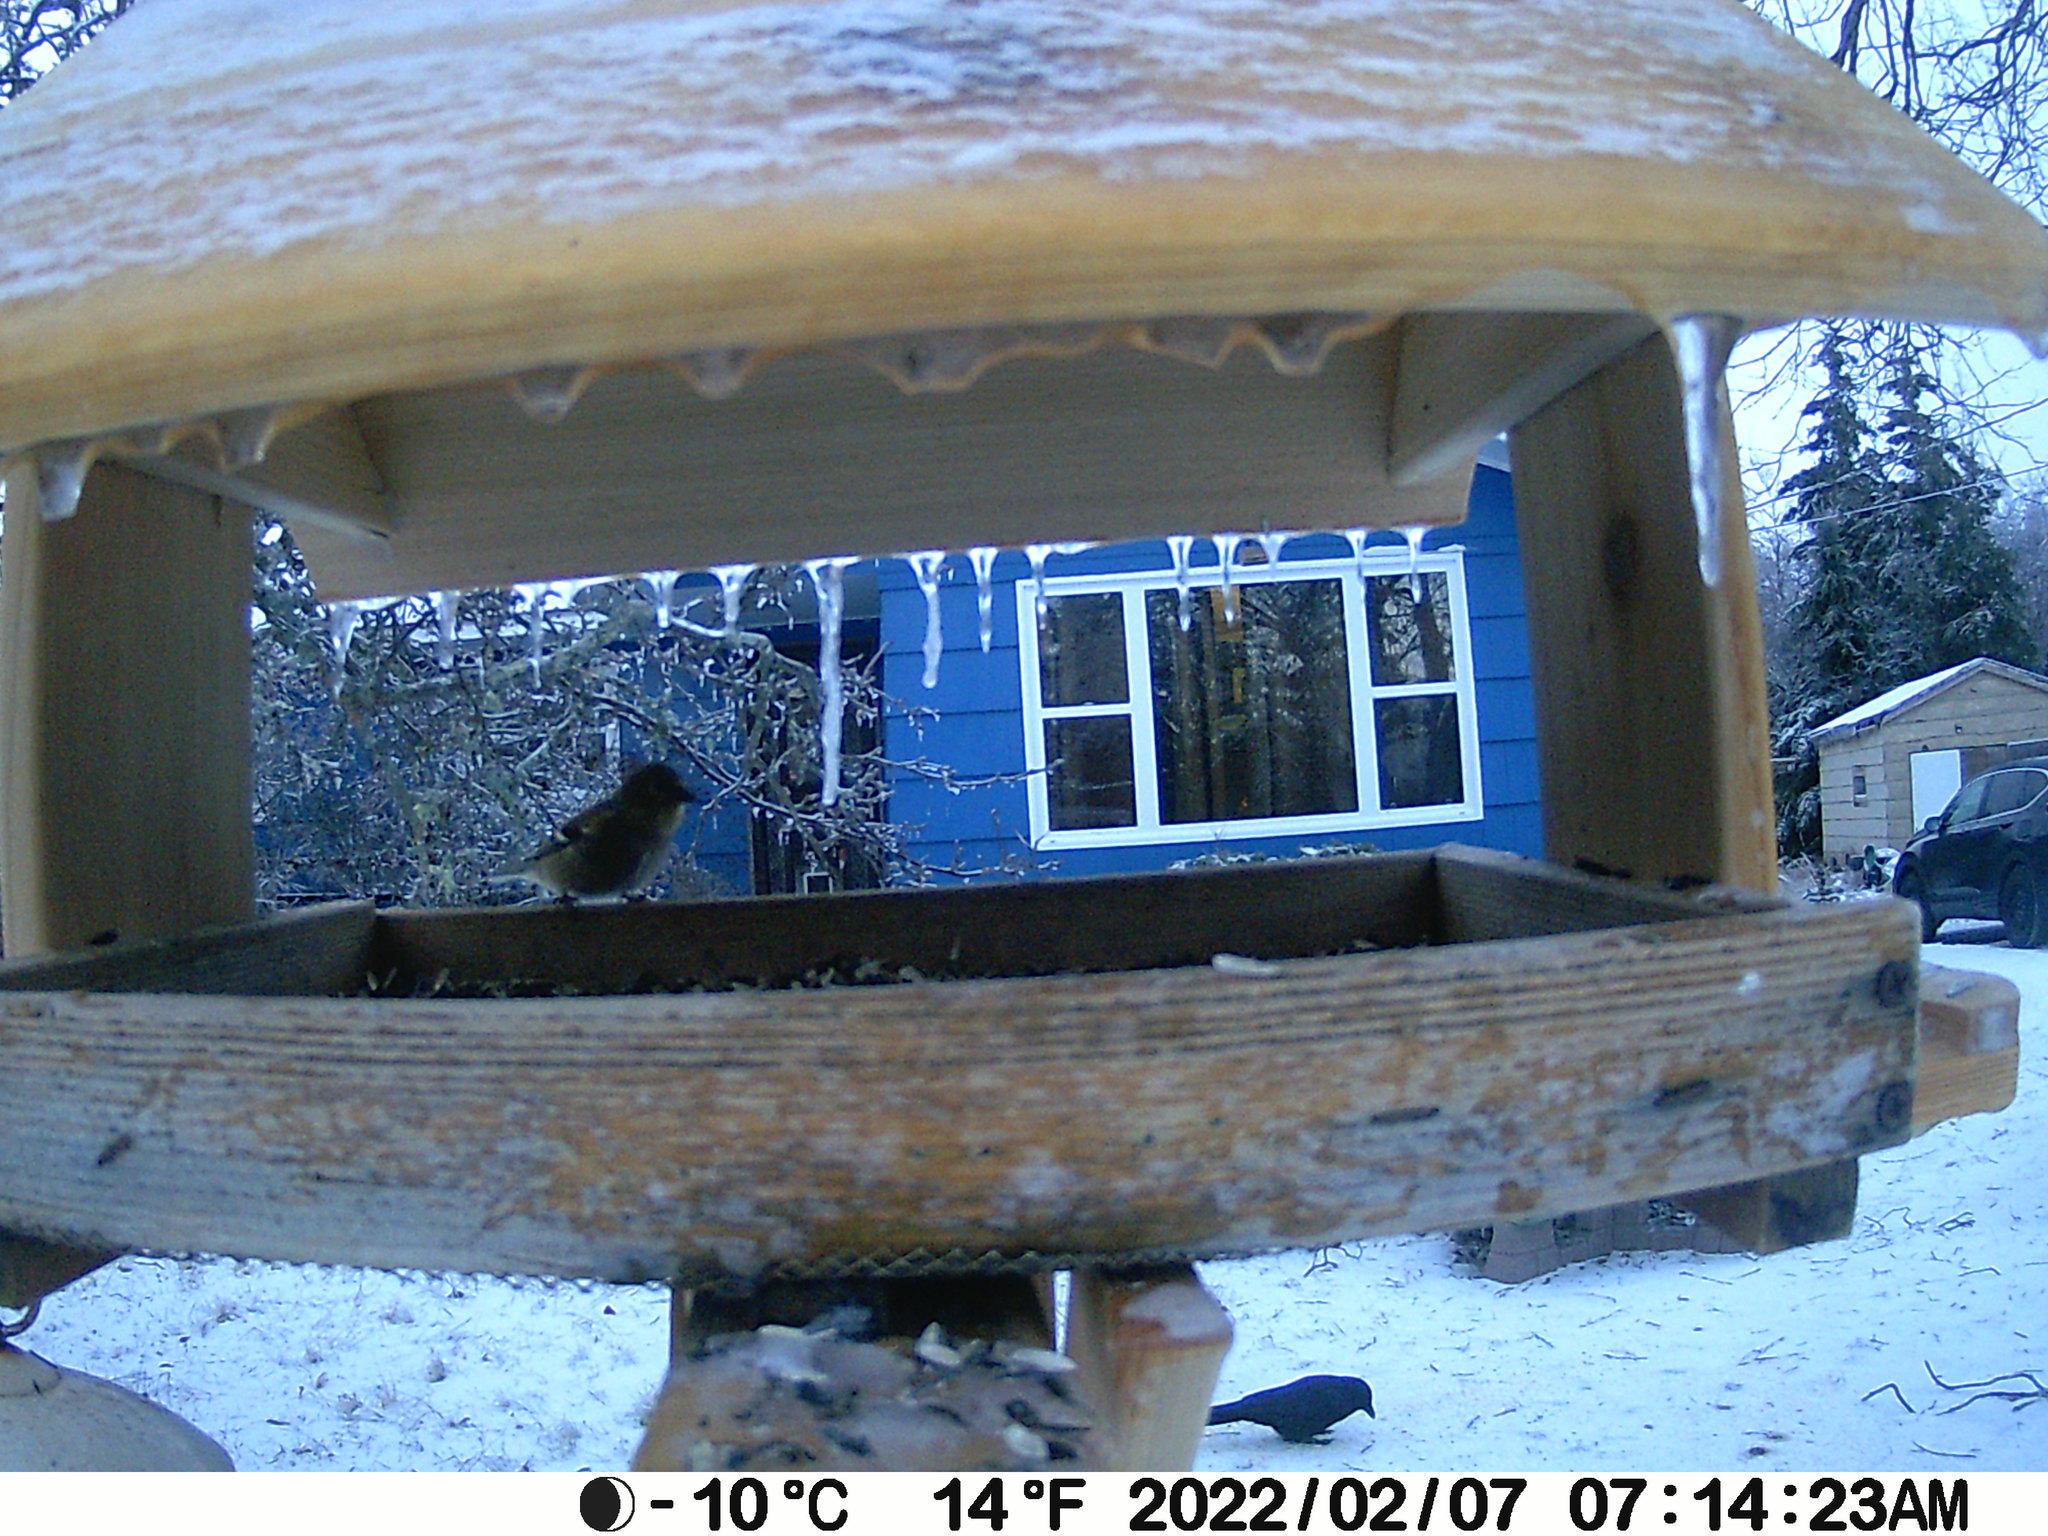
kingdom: Animalia
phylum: Chordata
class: Aves
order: Passeriformes
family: Corvidae
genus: Corvus
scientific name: Corvus brachyrhynchos
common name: American crow
